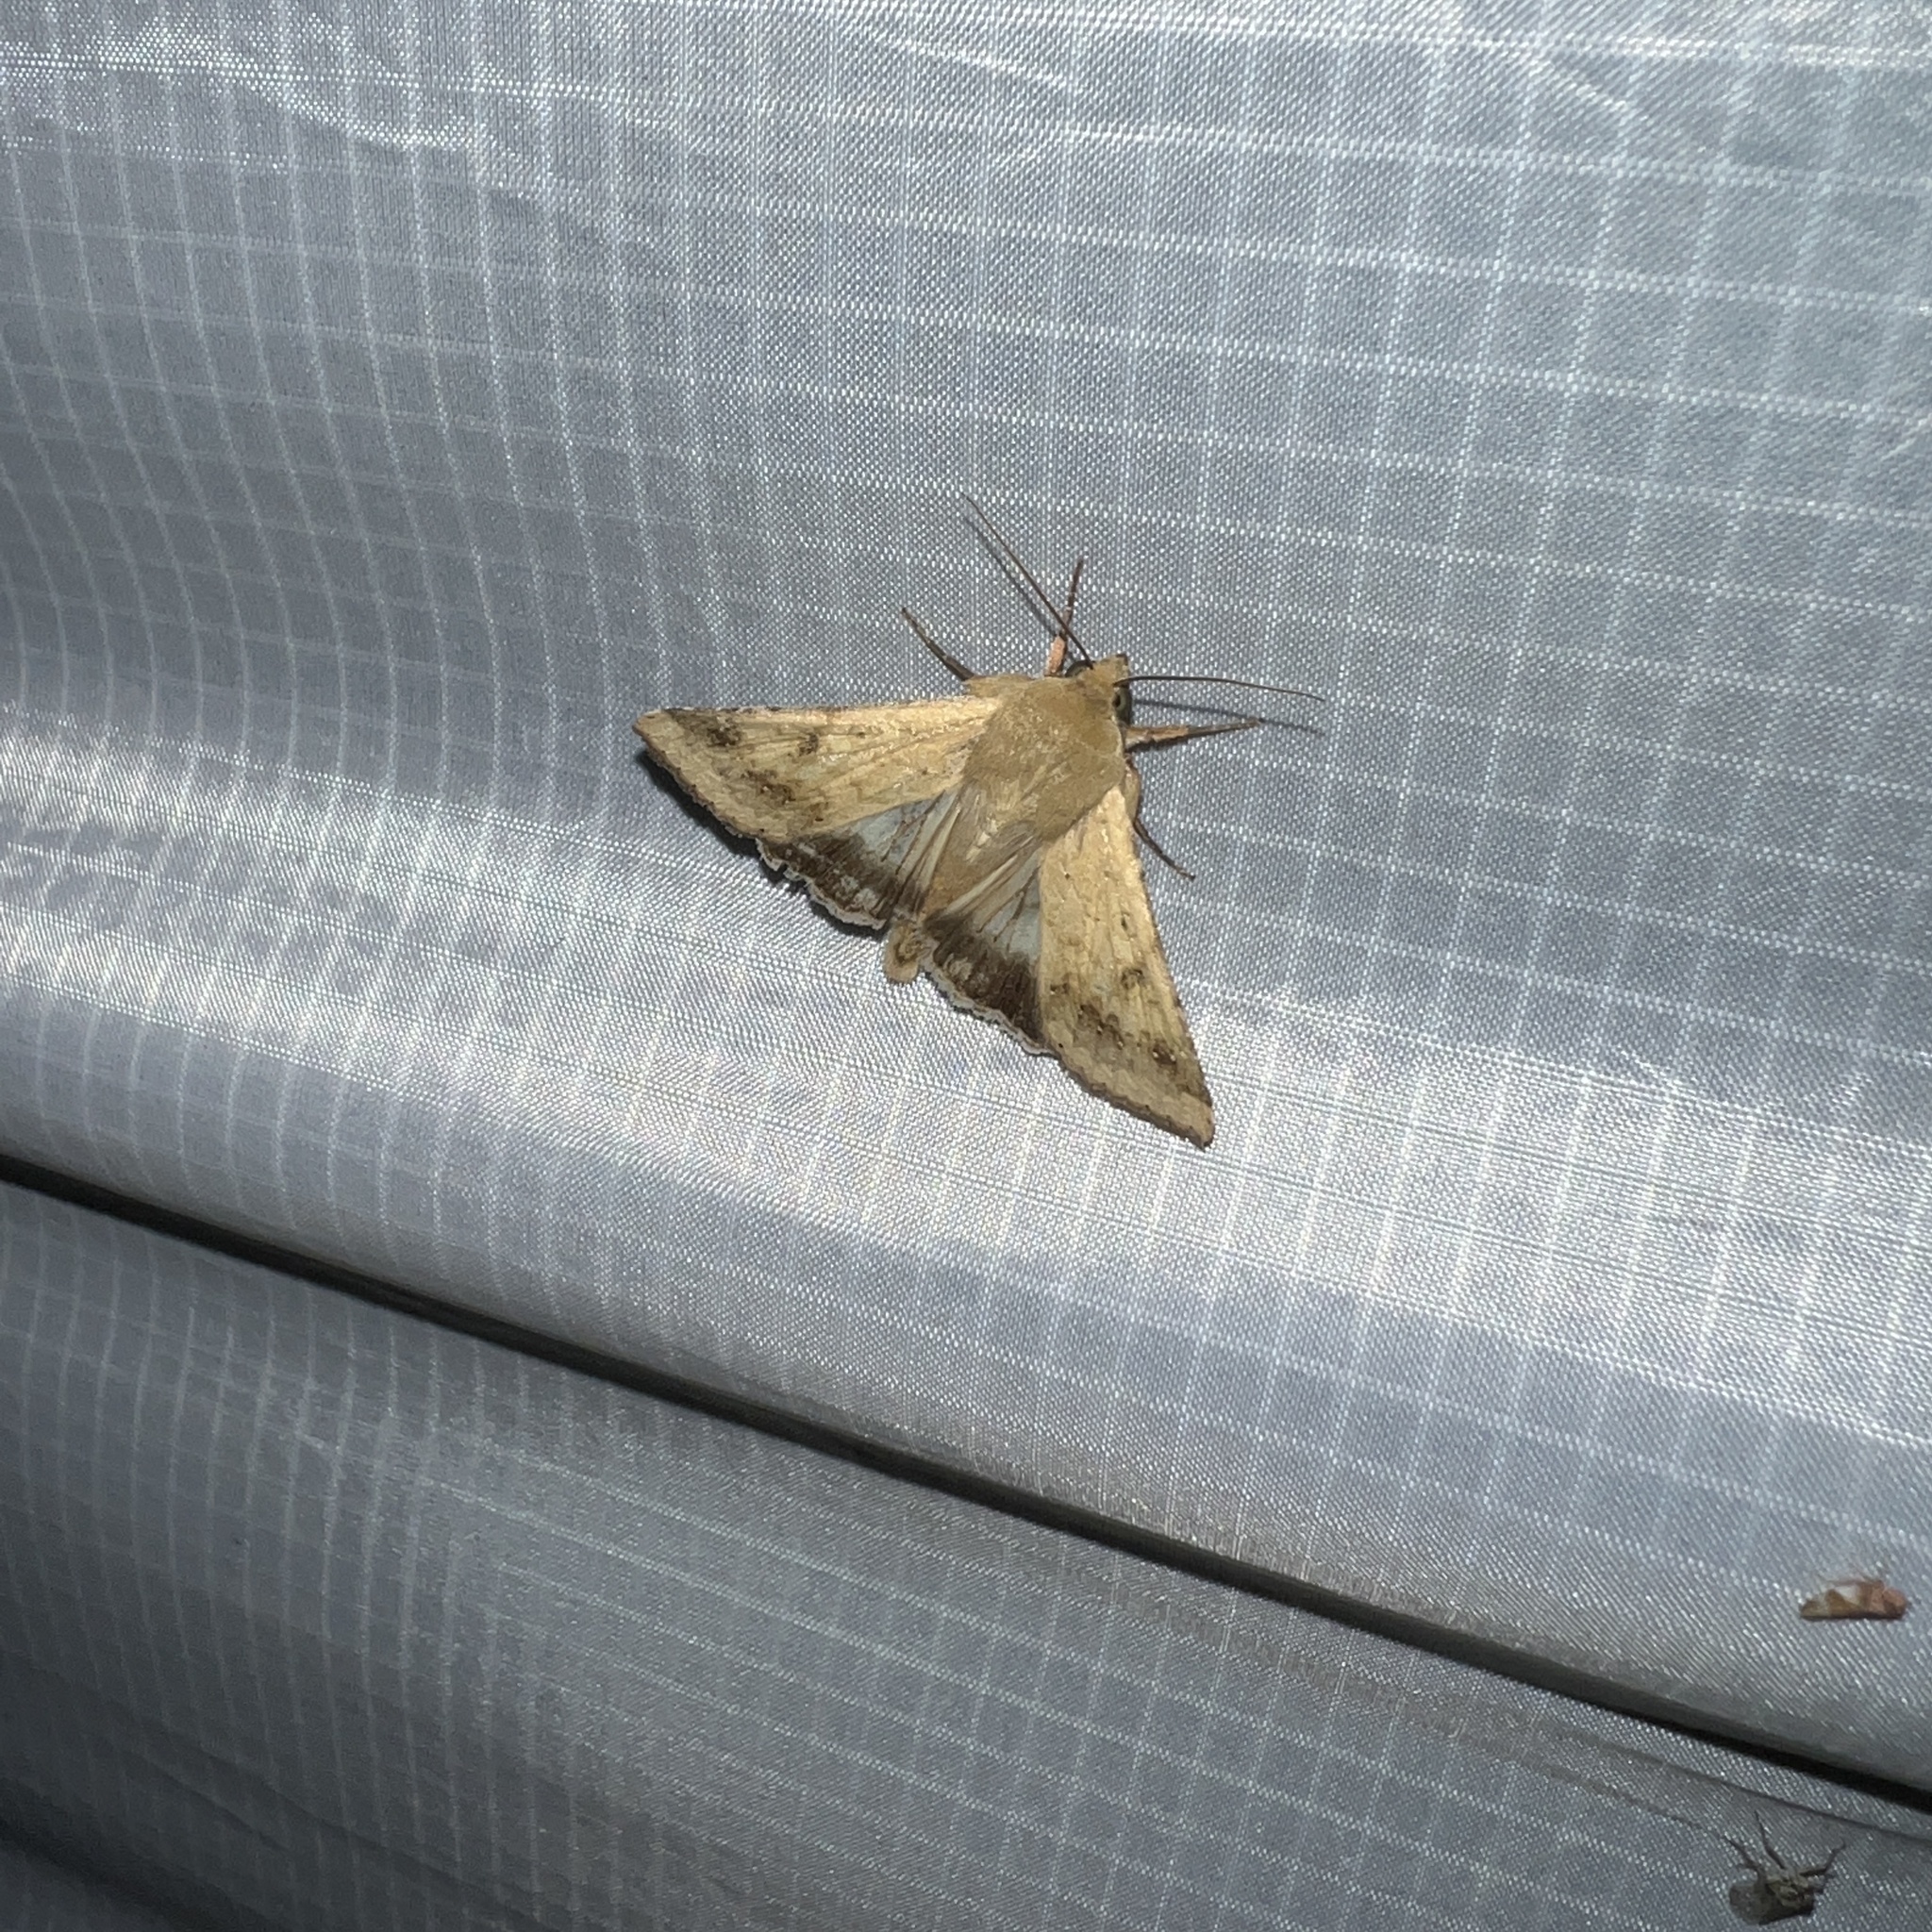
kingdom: Animalia
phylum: Arthropoda
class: Insecta
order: Lepidoptera
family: Noctuidae
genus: Helicoverpa
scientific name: Helicoverpa zea
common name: Bollworm
